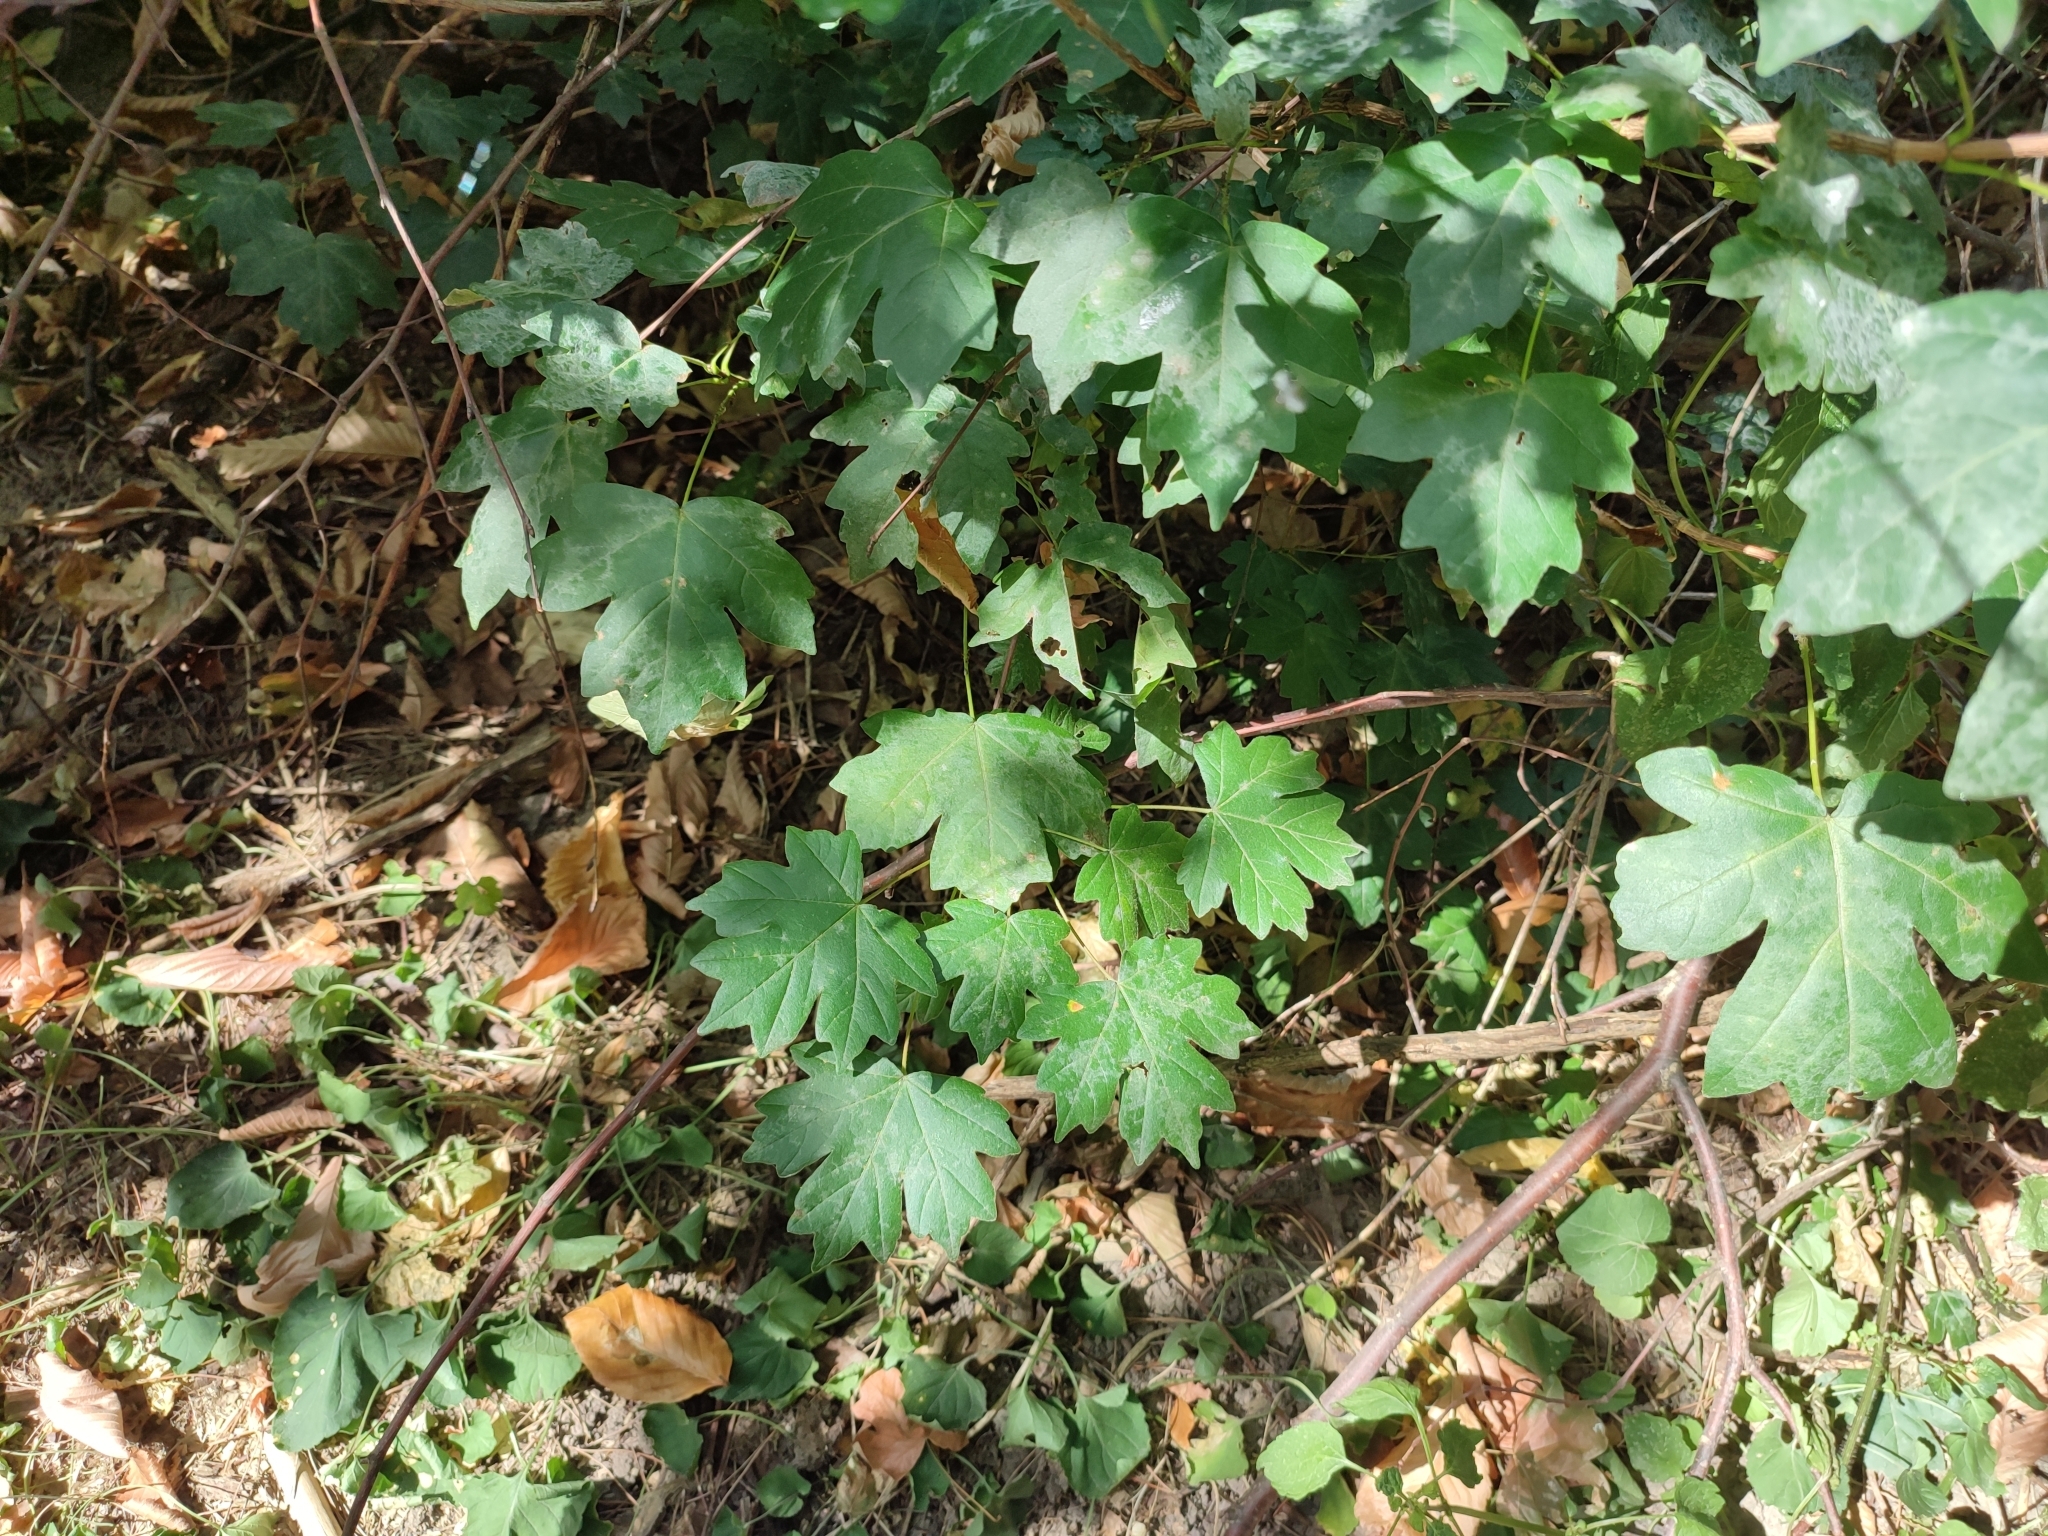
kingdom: Plantae
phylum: Tracheophyta
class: Magnoliopsida
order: Sapindales
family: Sapindaceae
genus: Acer
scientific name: Acer campestre
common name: Field maple
